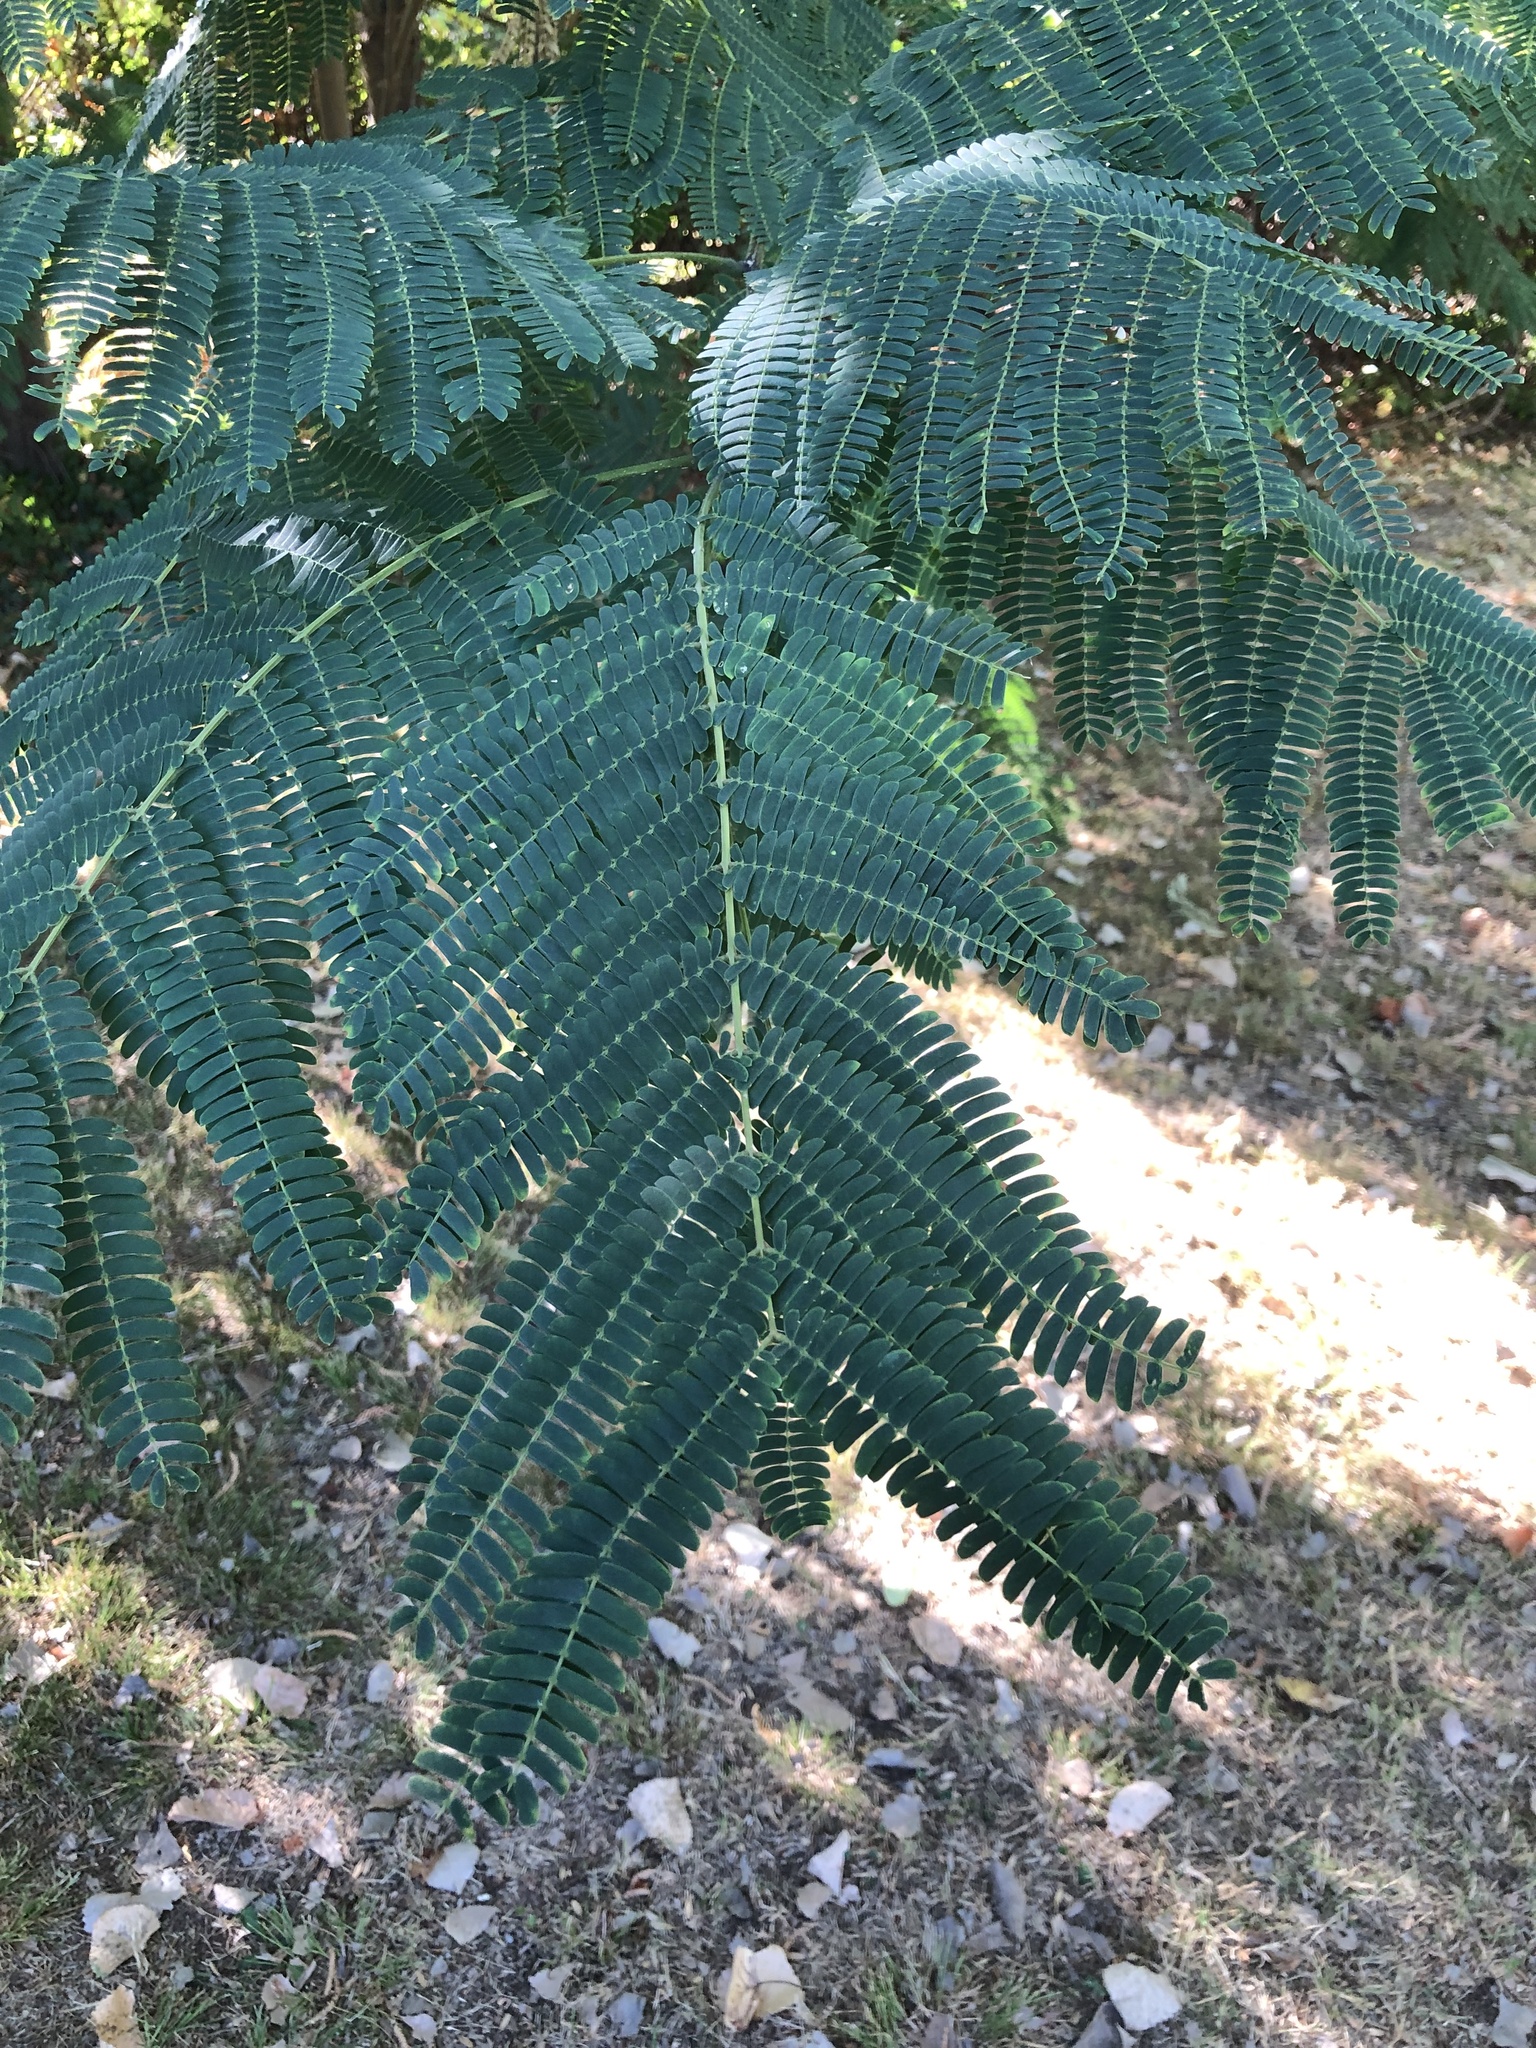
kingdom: Plantae
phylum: Tracheophyta
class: Magnoliopsida
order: Fabales
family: Fabaceae
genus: Albizia
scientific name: Albizia julibrissin
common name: Silktree
